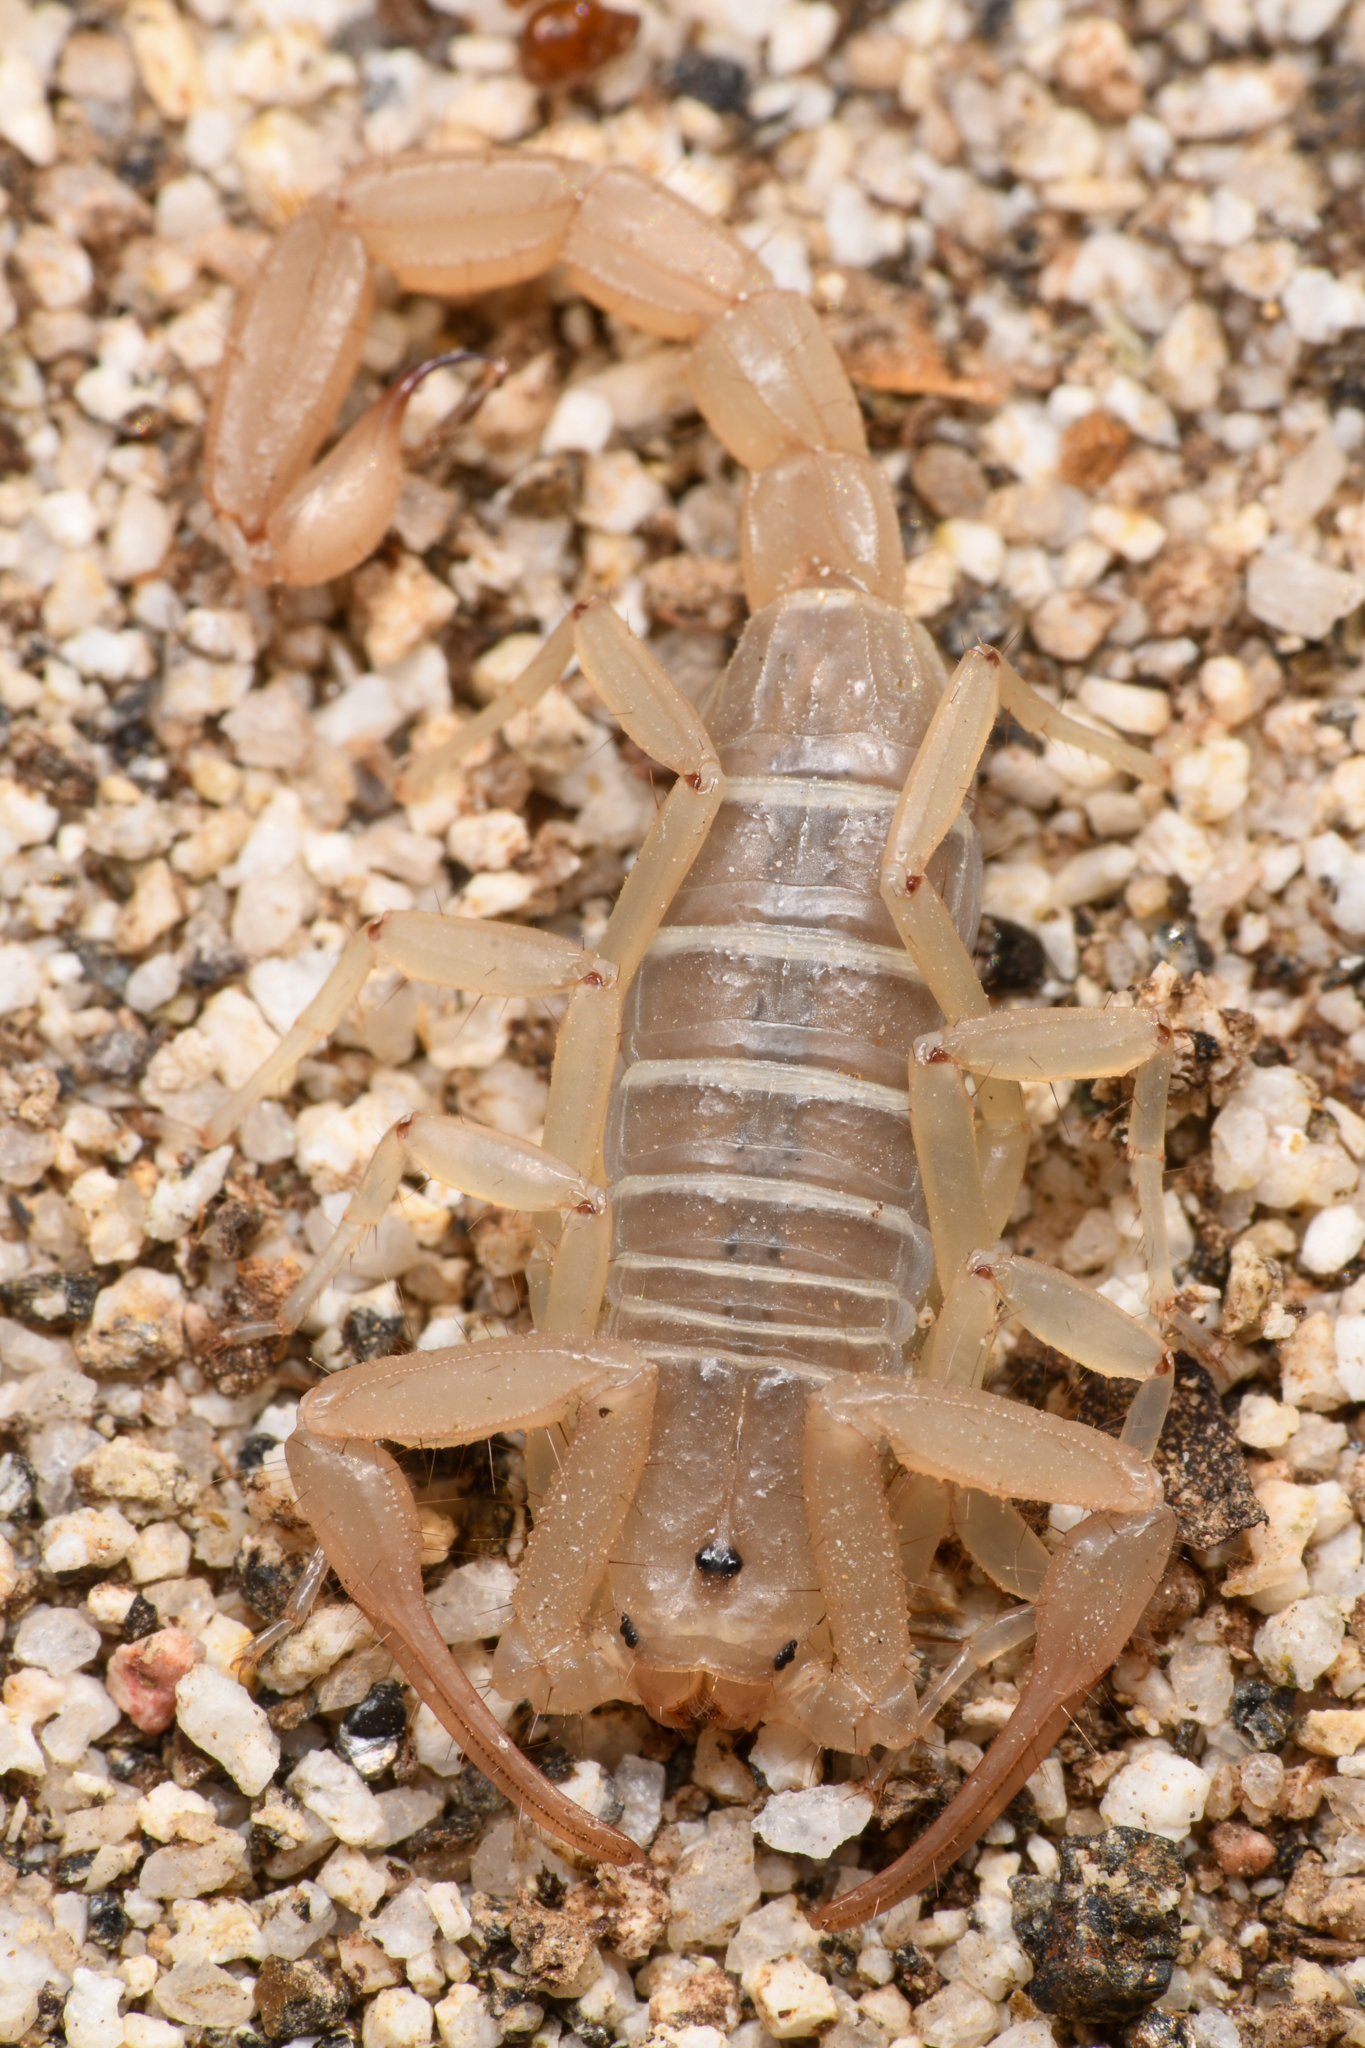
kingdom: Animalia
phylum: Arthropoda
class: Arachnida
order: Scorpiones
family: Vaejovidae
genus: Paravaejovis
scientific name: Paravaejovis waeringi
